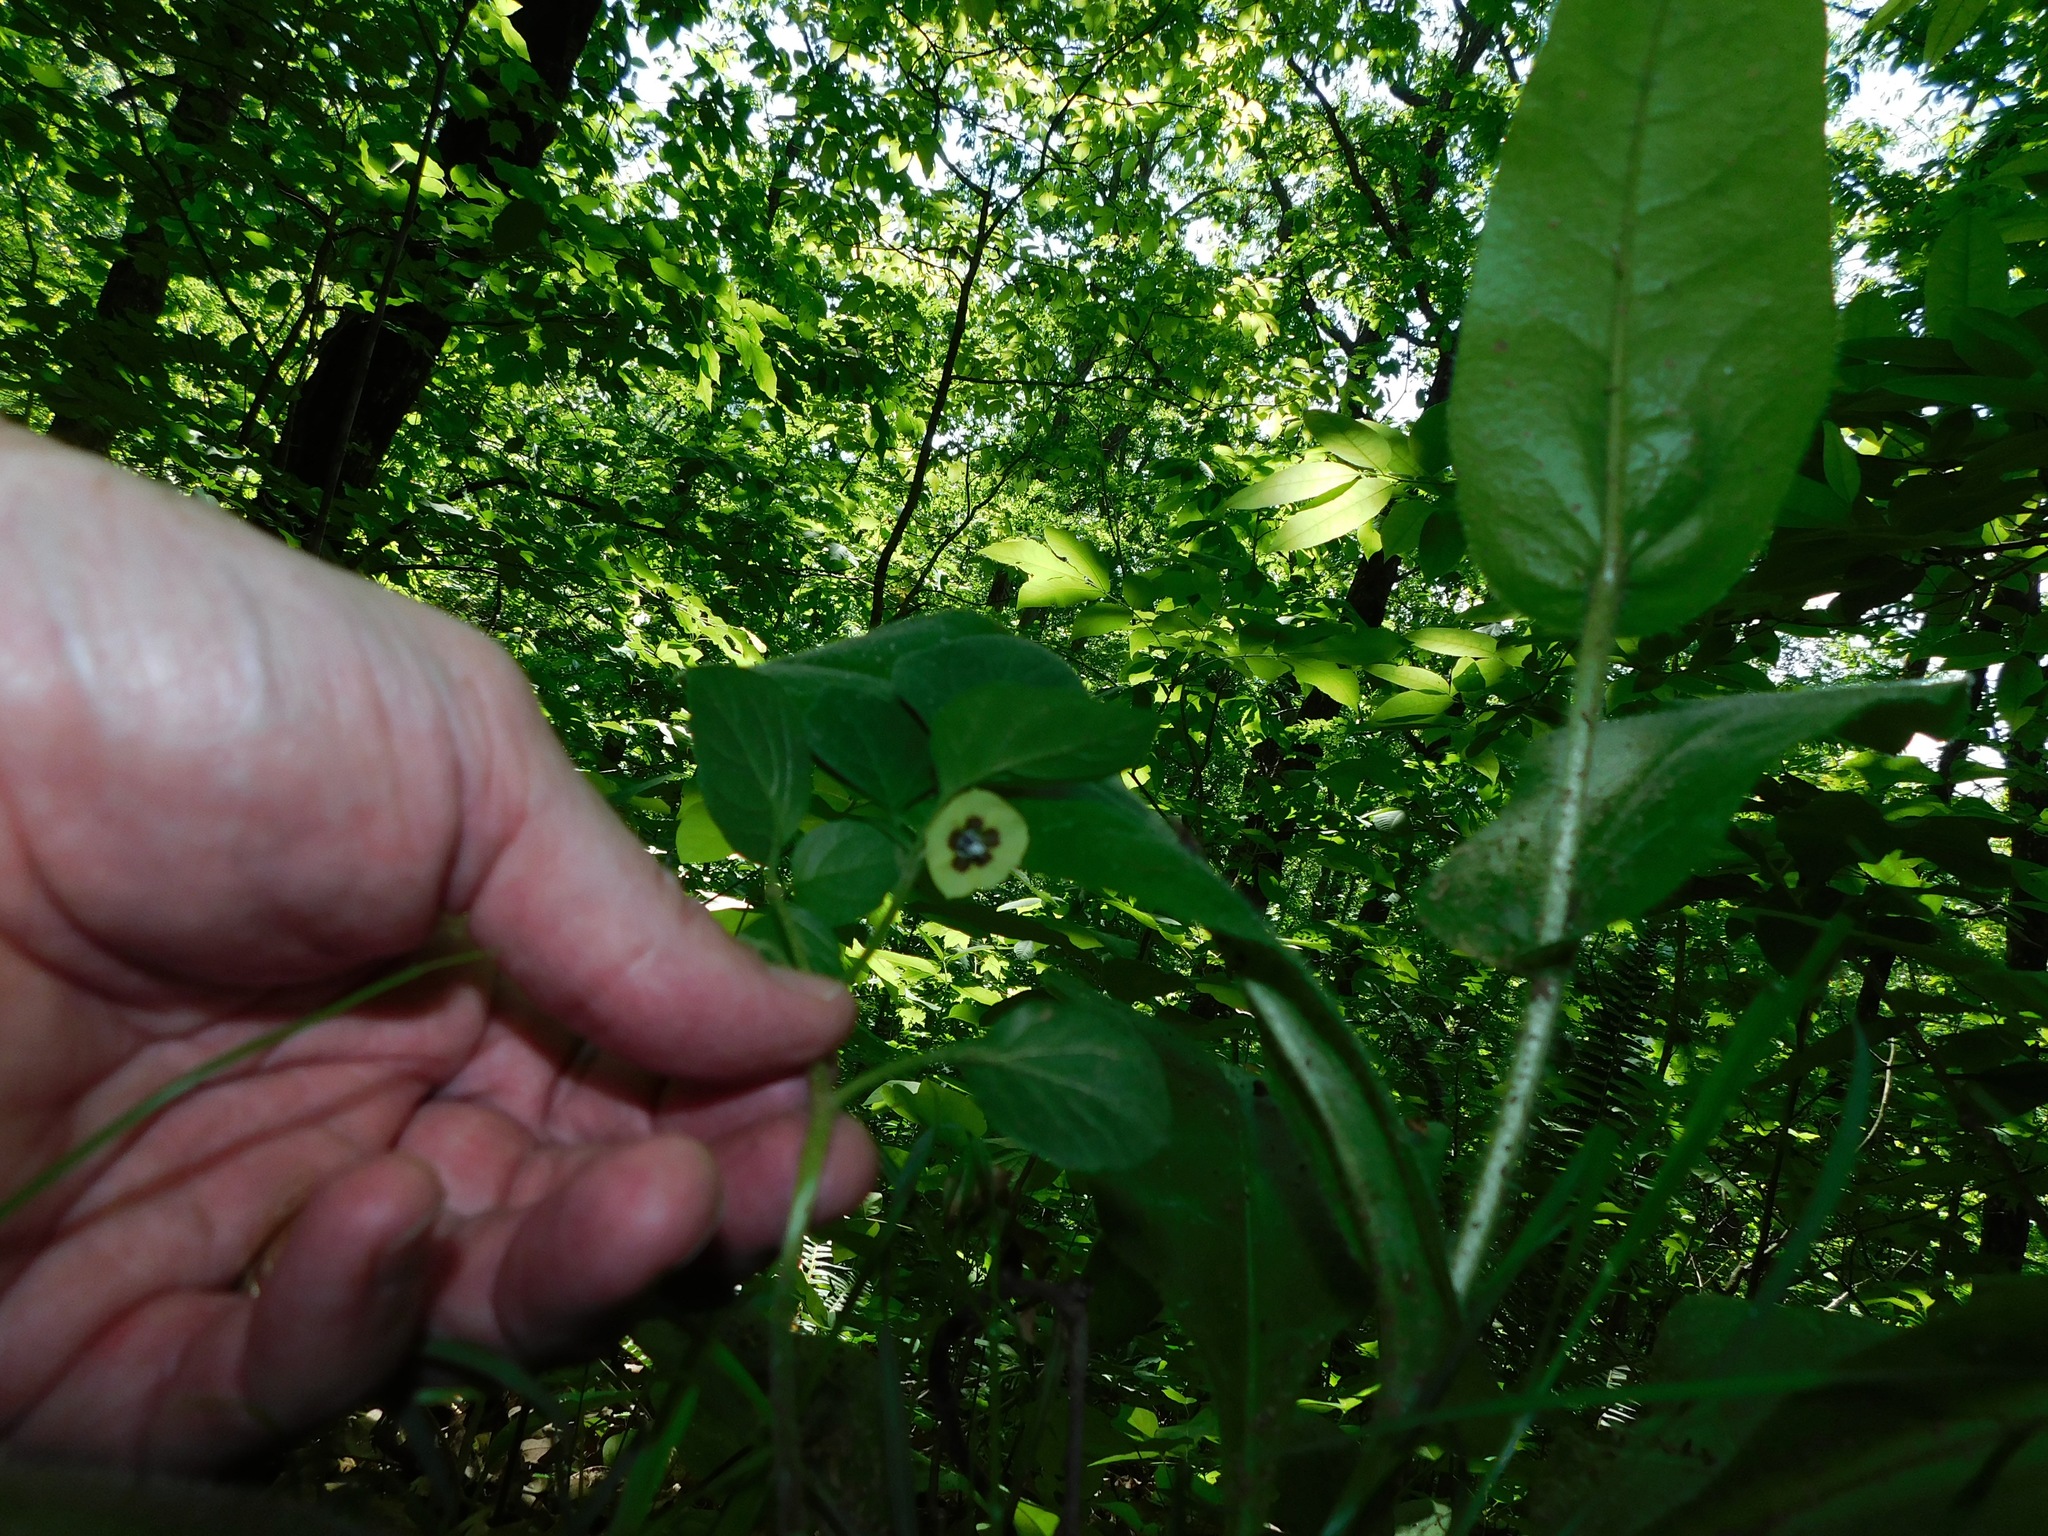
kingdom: Plantae
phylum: Tracheophyta
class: Magnoliopsida
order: Solanales
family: Solanaceae
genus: Physalis
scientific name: Physalis virginiana
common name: Virginia ground-cherry
